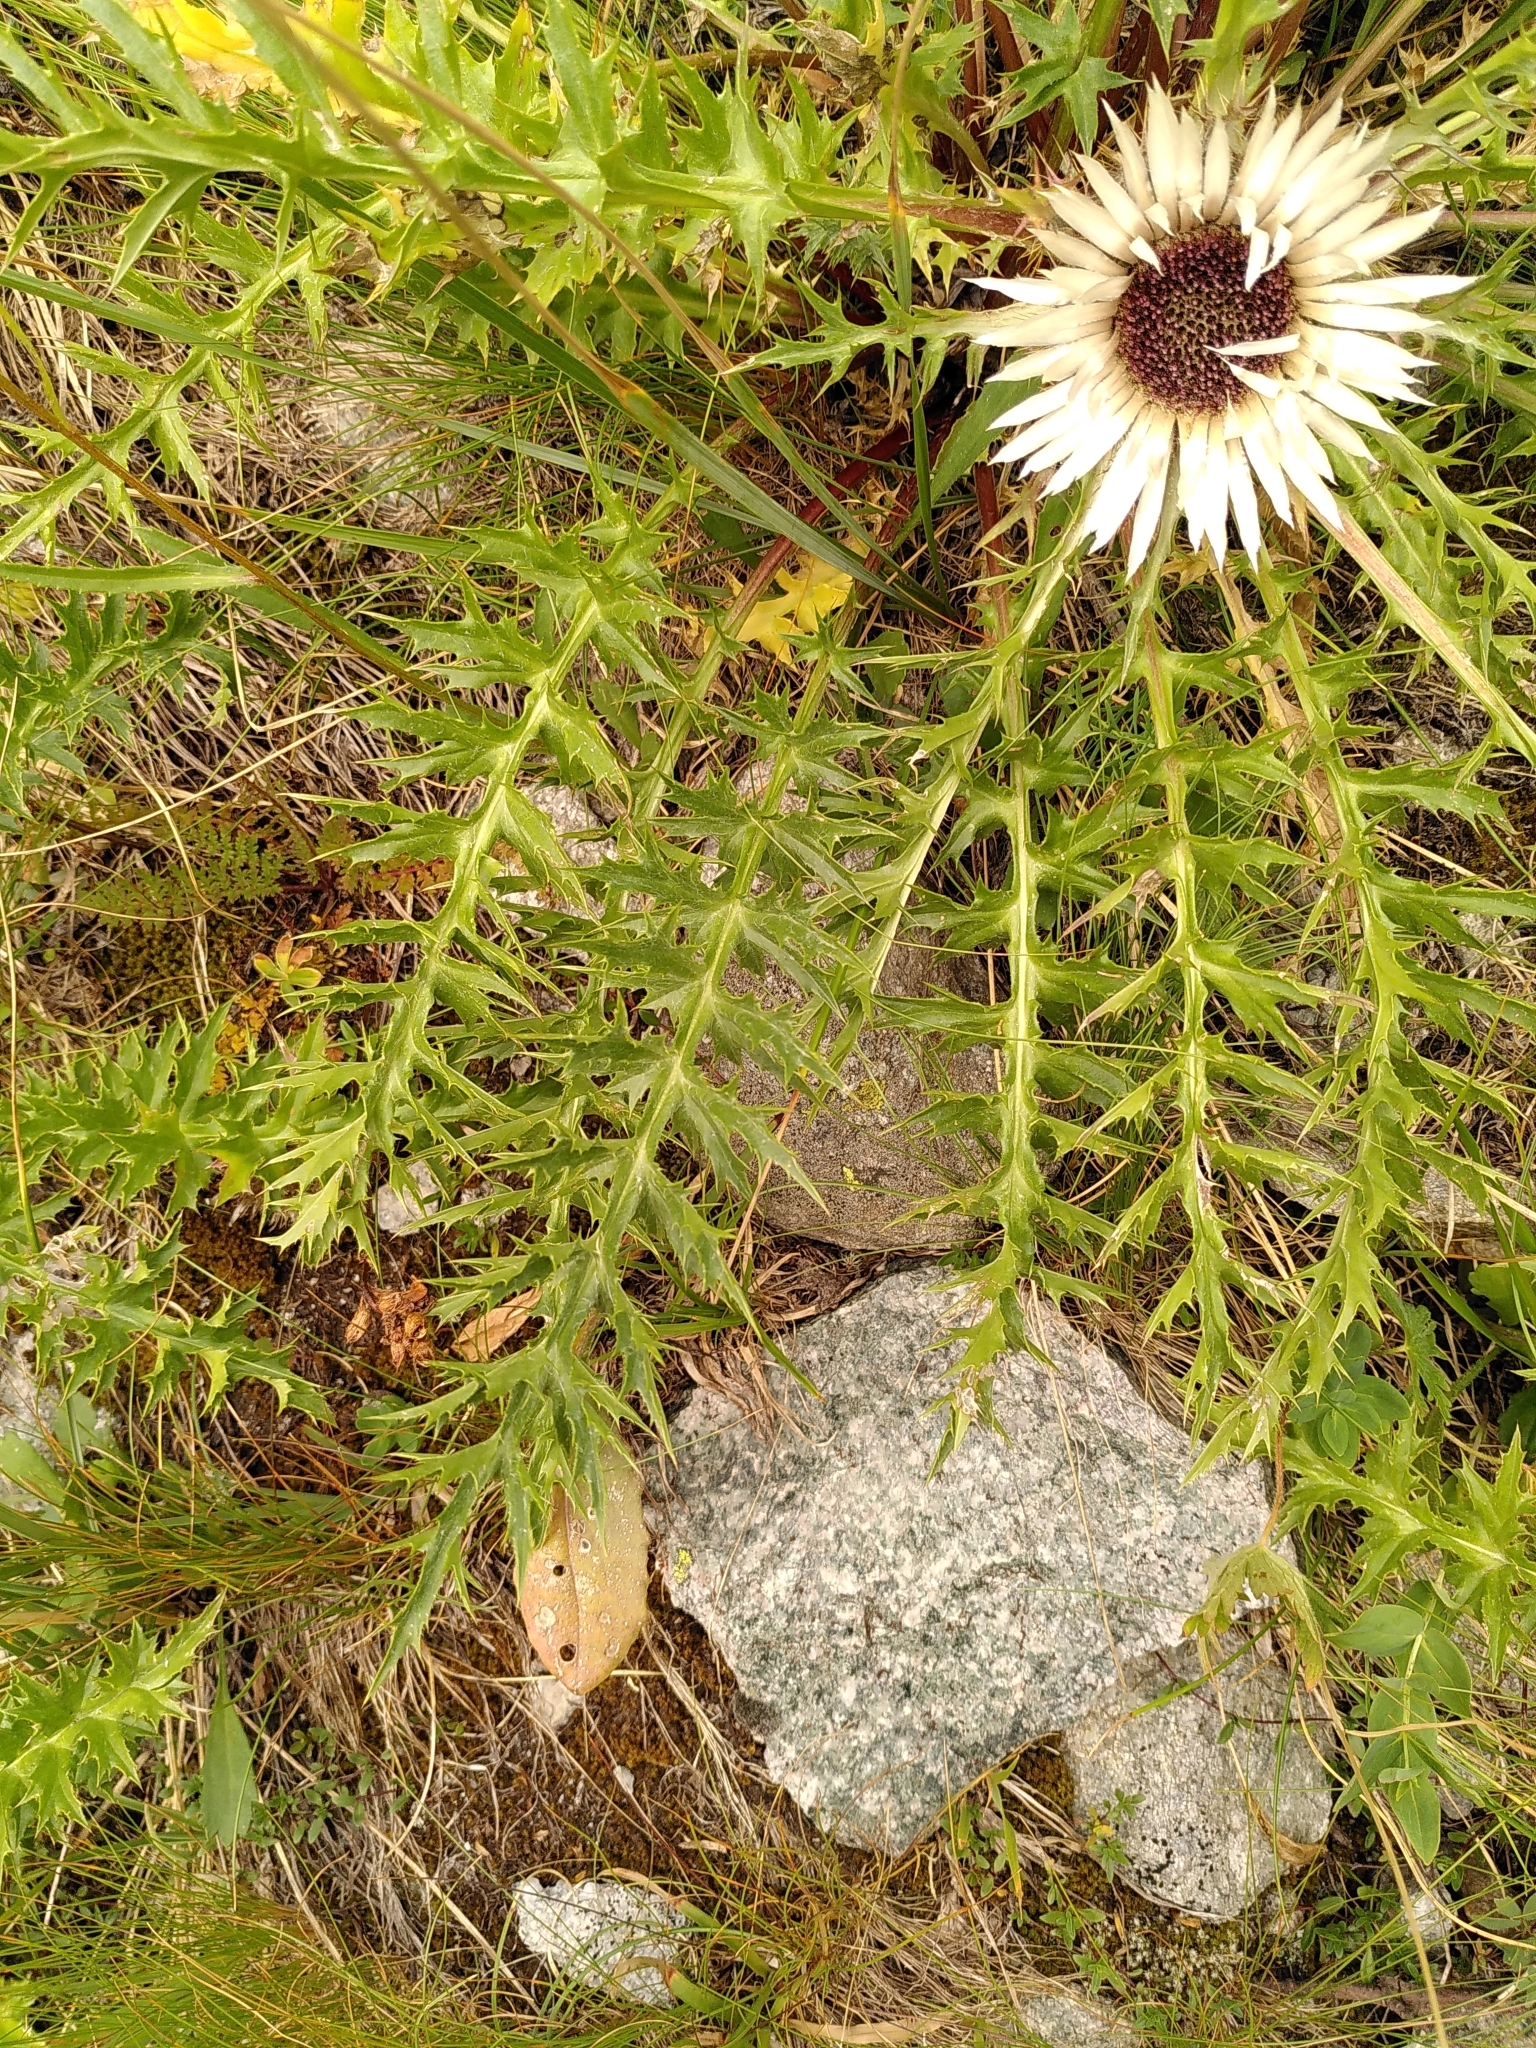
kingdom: Plantae
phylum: Tracheophyta
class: Magnoliopsida
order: Asterales
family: Asteraceae
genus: Carlina
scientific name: Carlina acaulis
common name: Stemless carline thistle
